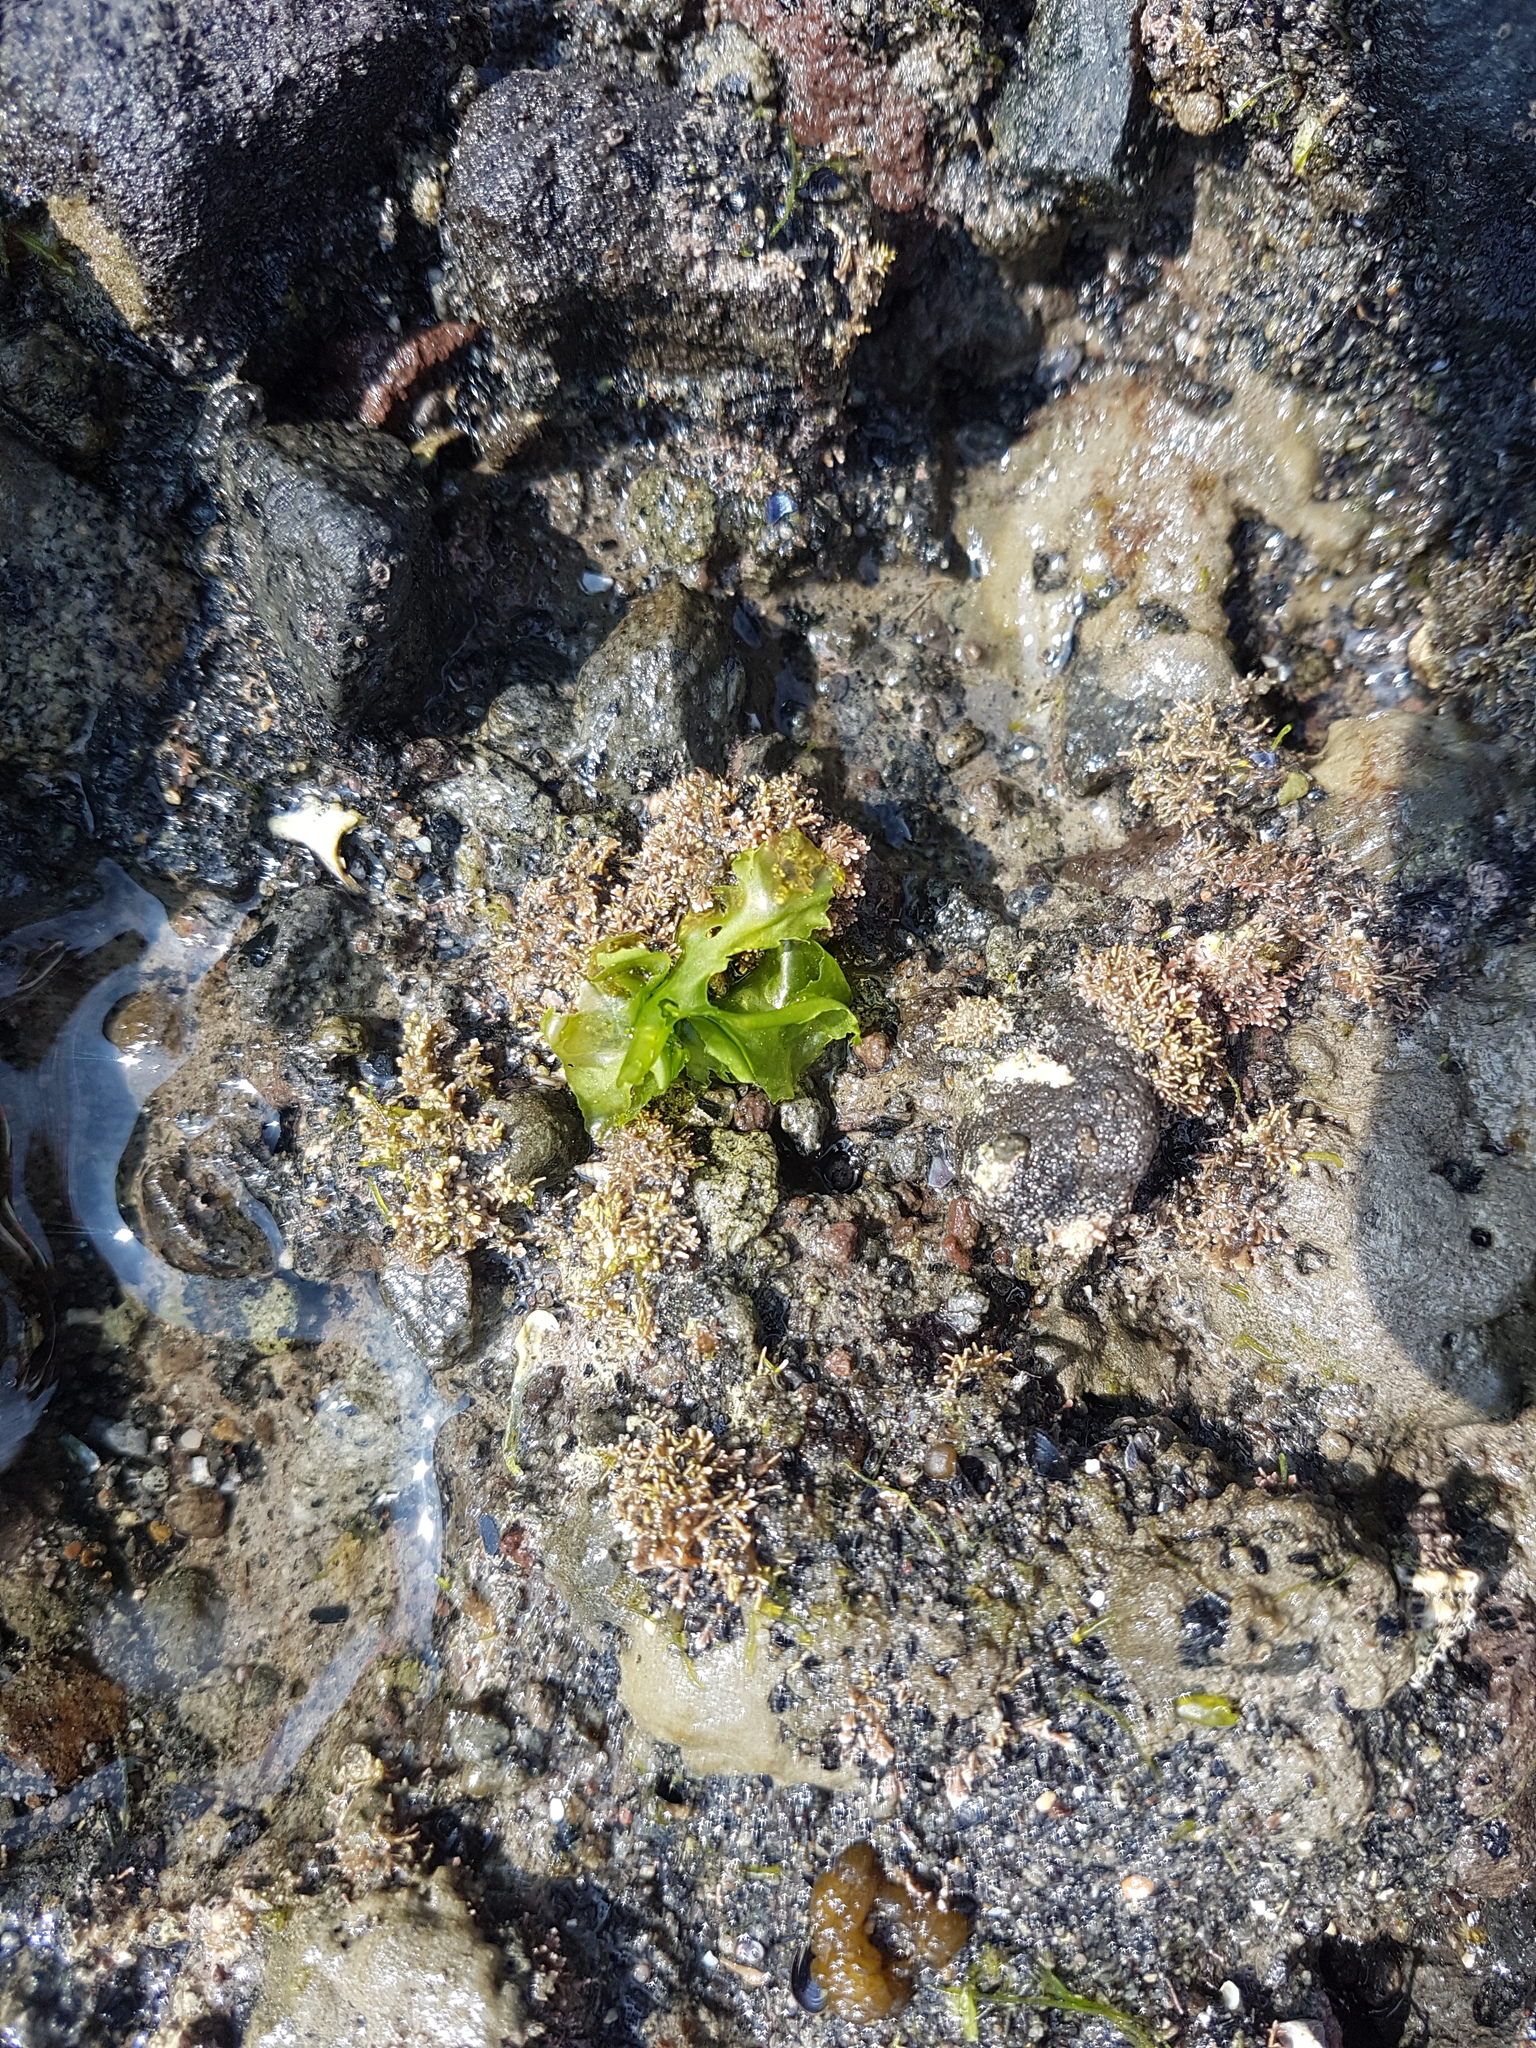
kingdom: Plantae
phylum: Chlorophyta
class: Ulvophyceae
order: Ulvales
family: Ulvaceae
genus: Ulva
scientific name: Ulva
